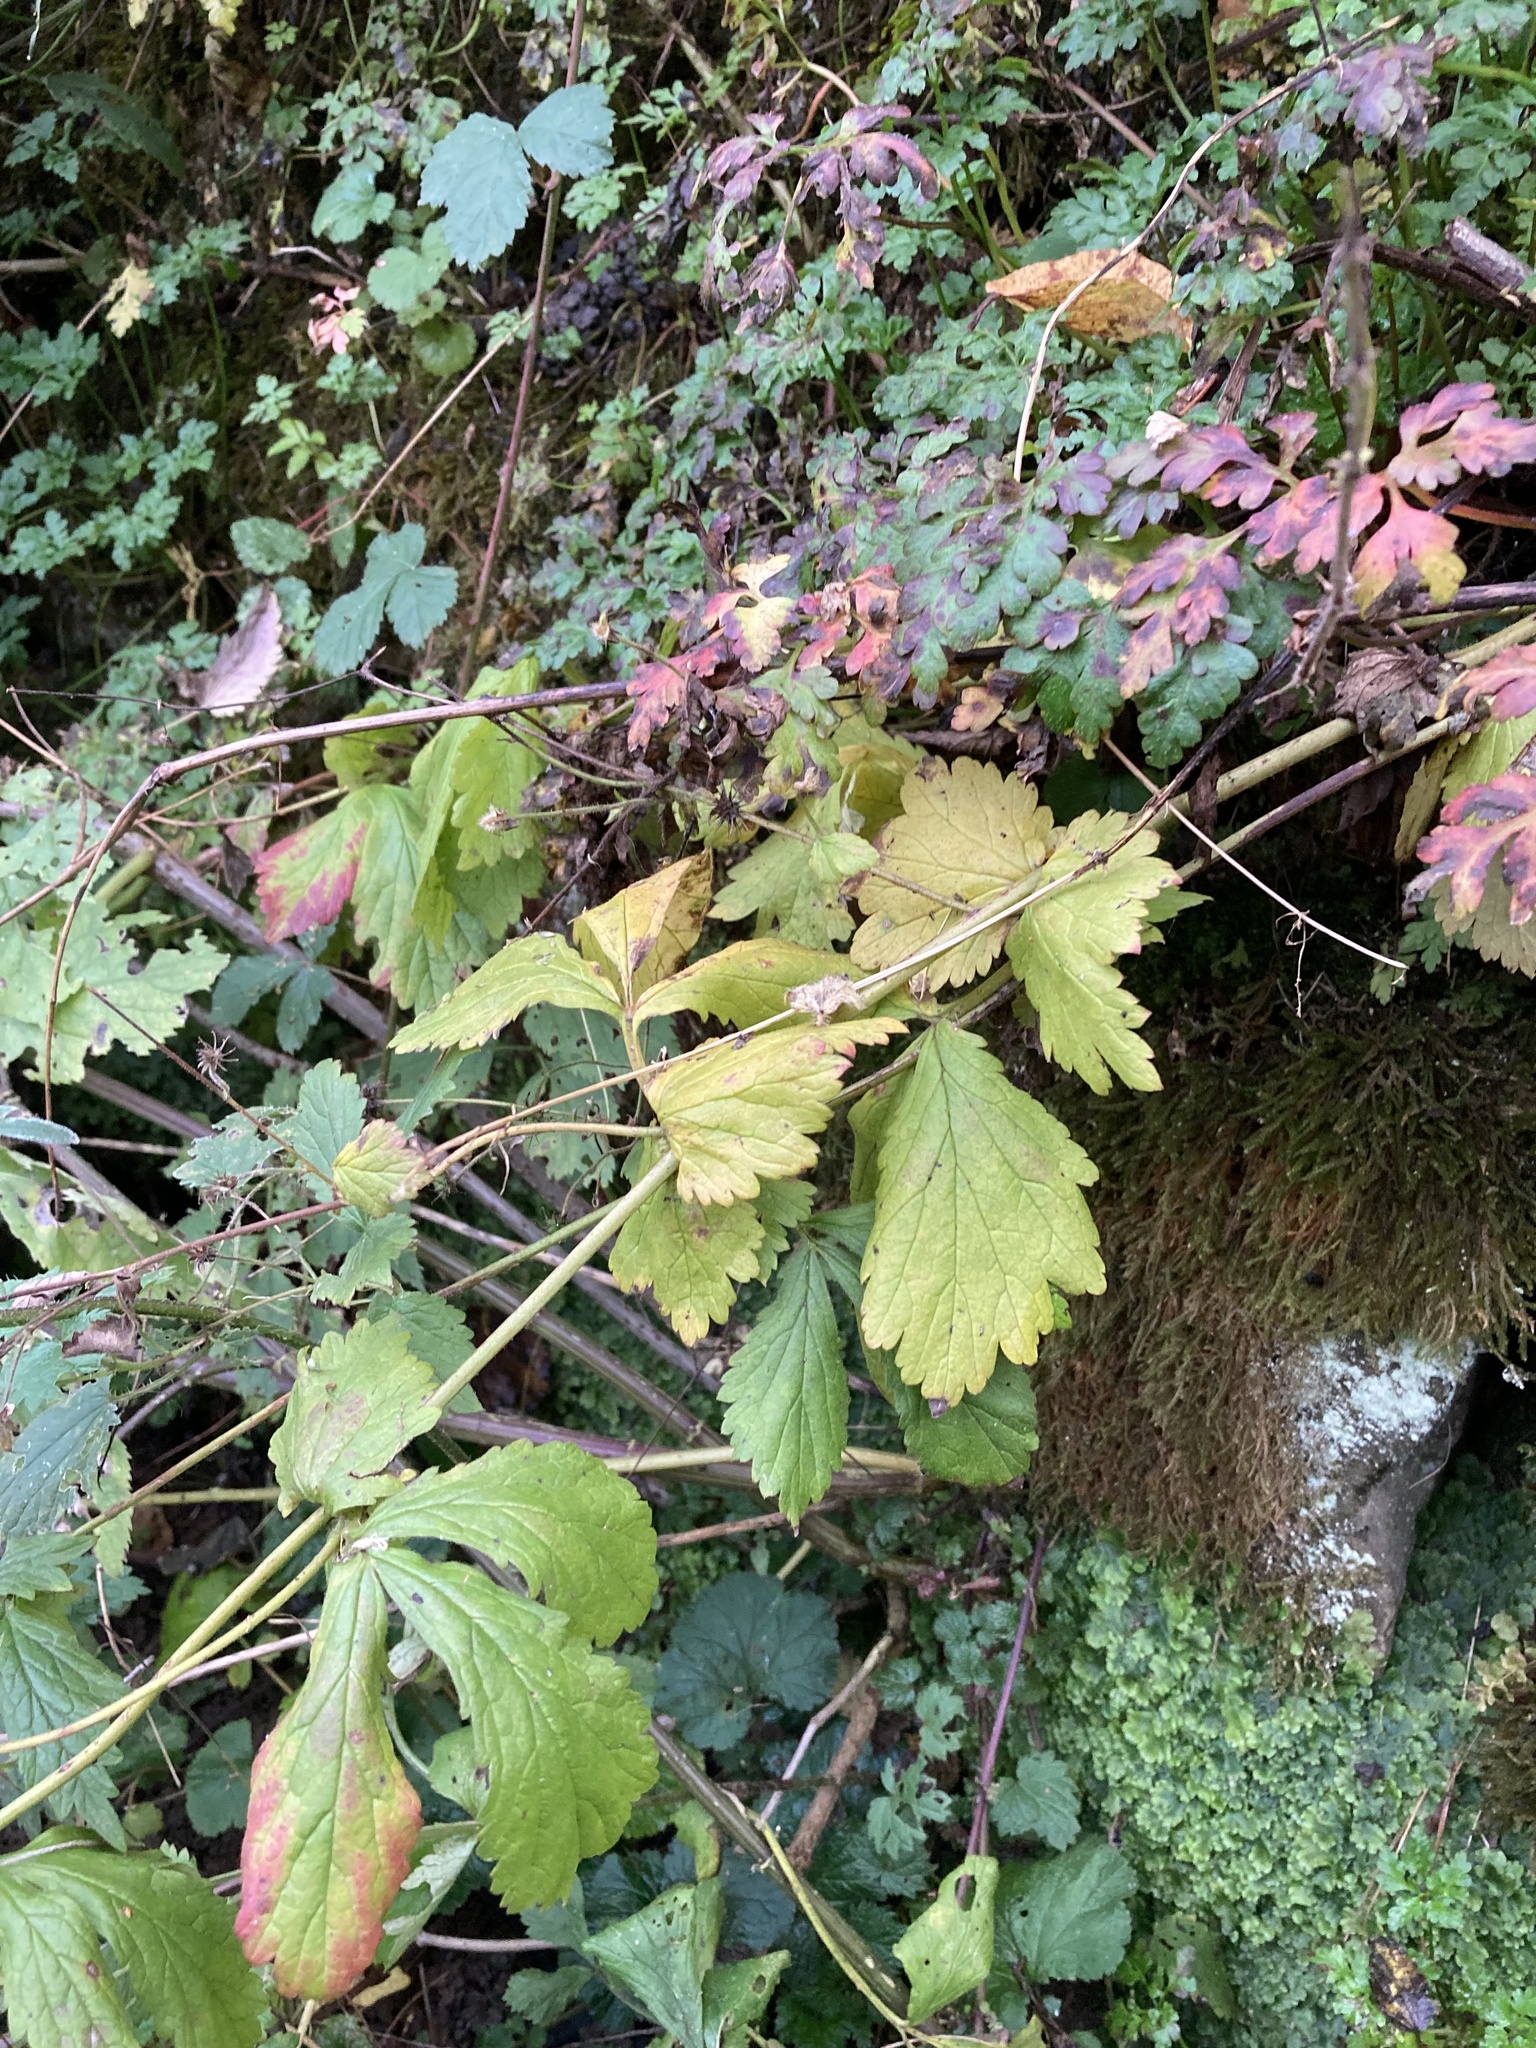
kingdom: Plantae
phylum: Tracheophyta
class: Magnoliopsida
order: Rosales
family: Rosaceae
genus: Geum
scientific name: Geum urbanum
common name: Wood avens
